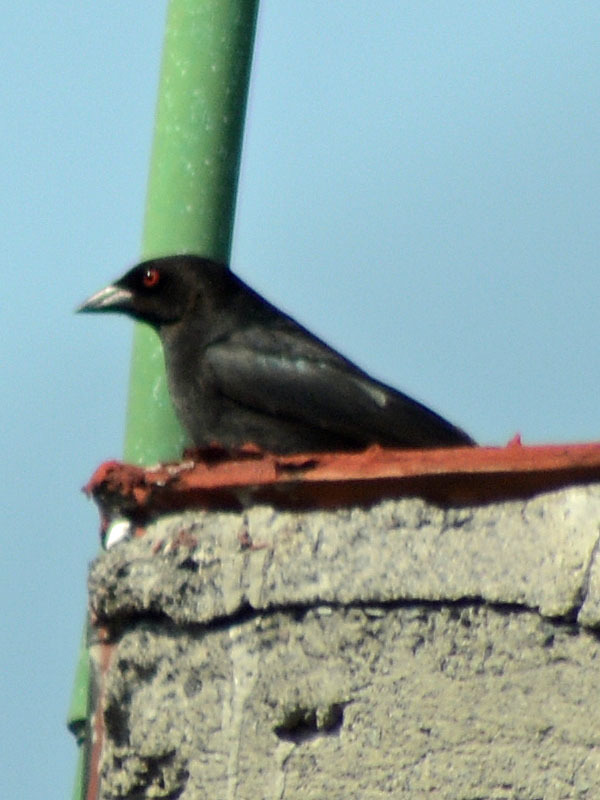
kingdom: Animalia
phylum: Chordata
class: Aves
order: Passeriformes
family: Icteridae
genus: Molothrus
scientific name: Molothrus aeneus
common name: Bronzed cowbird
